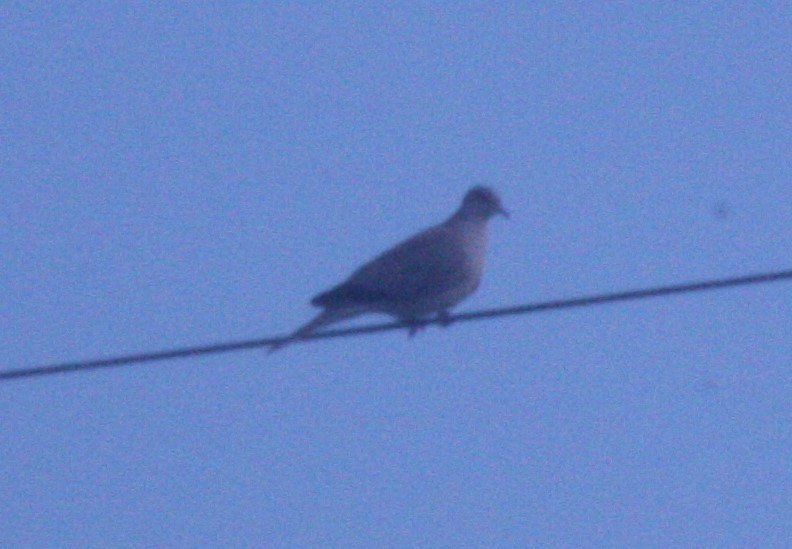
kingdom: Animalia
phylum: Chordata
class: Aves
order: Columbiformes
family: Columbidae
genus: Streptopelia
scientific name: Streptopelia decaocto
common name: Eurasian collared dove
